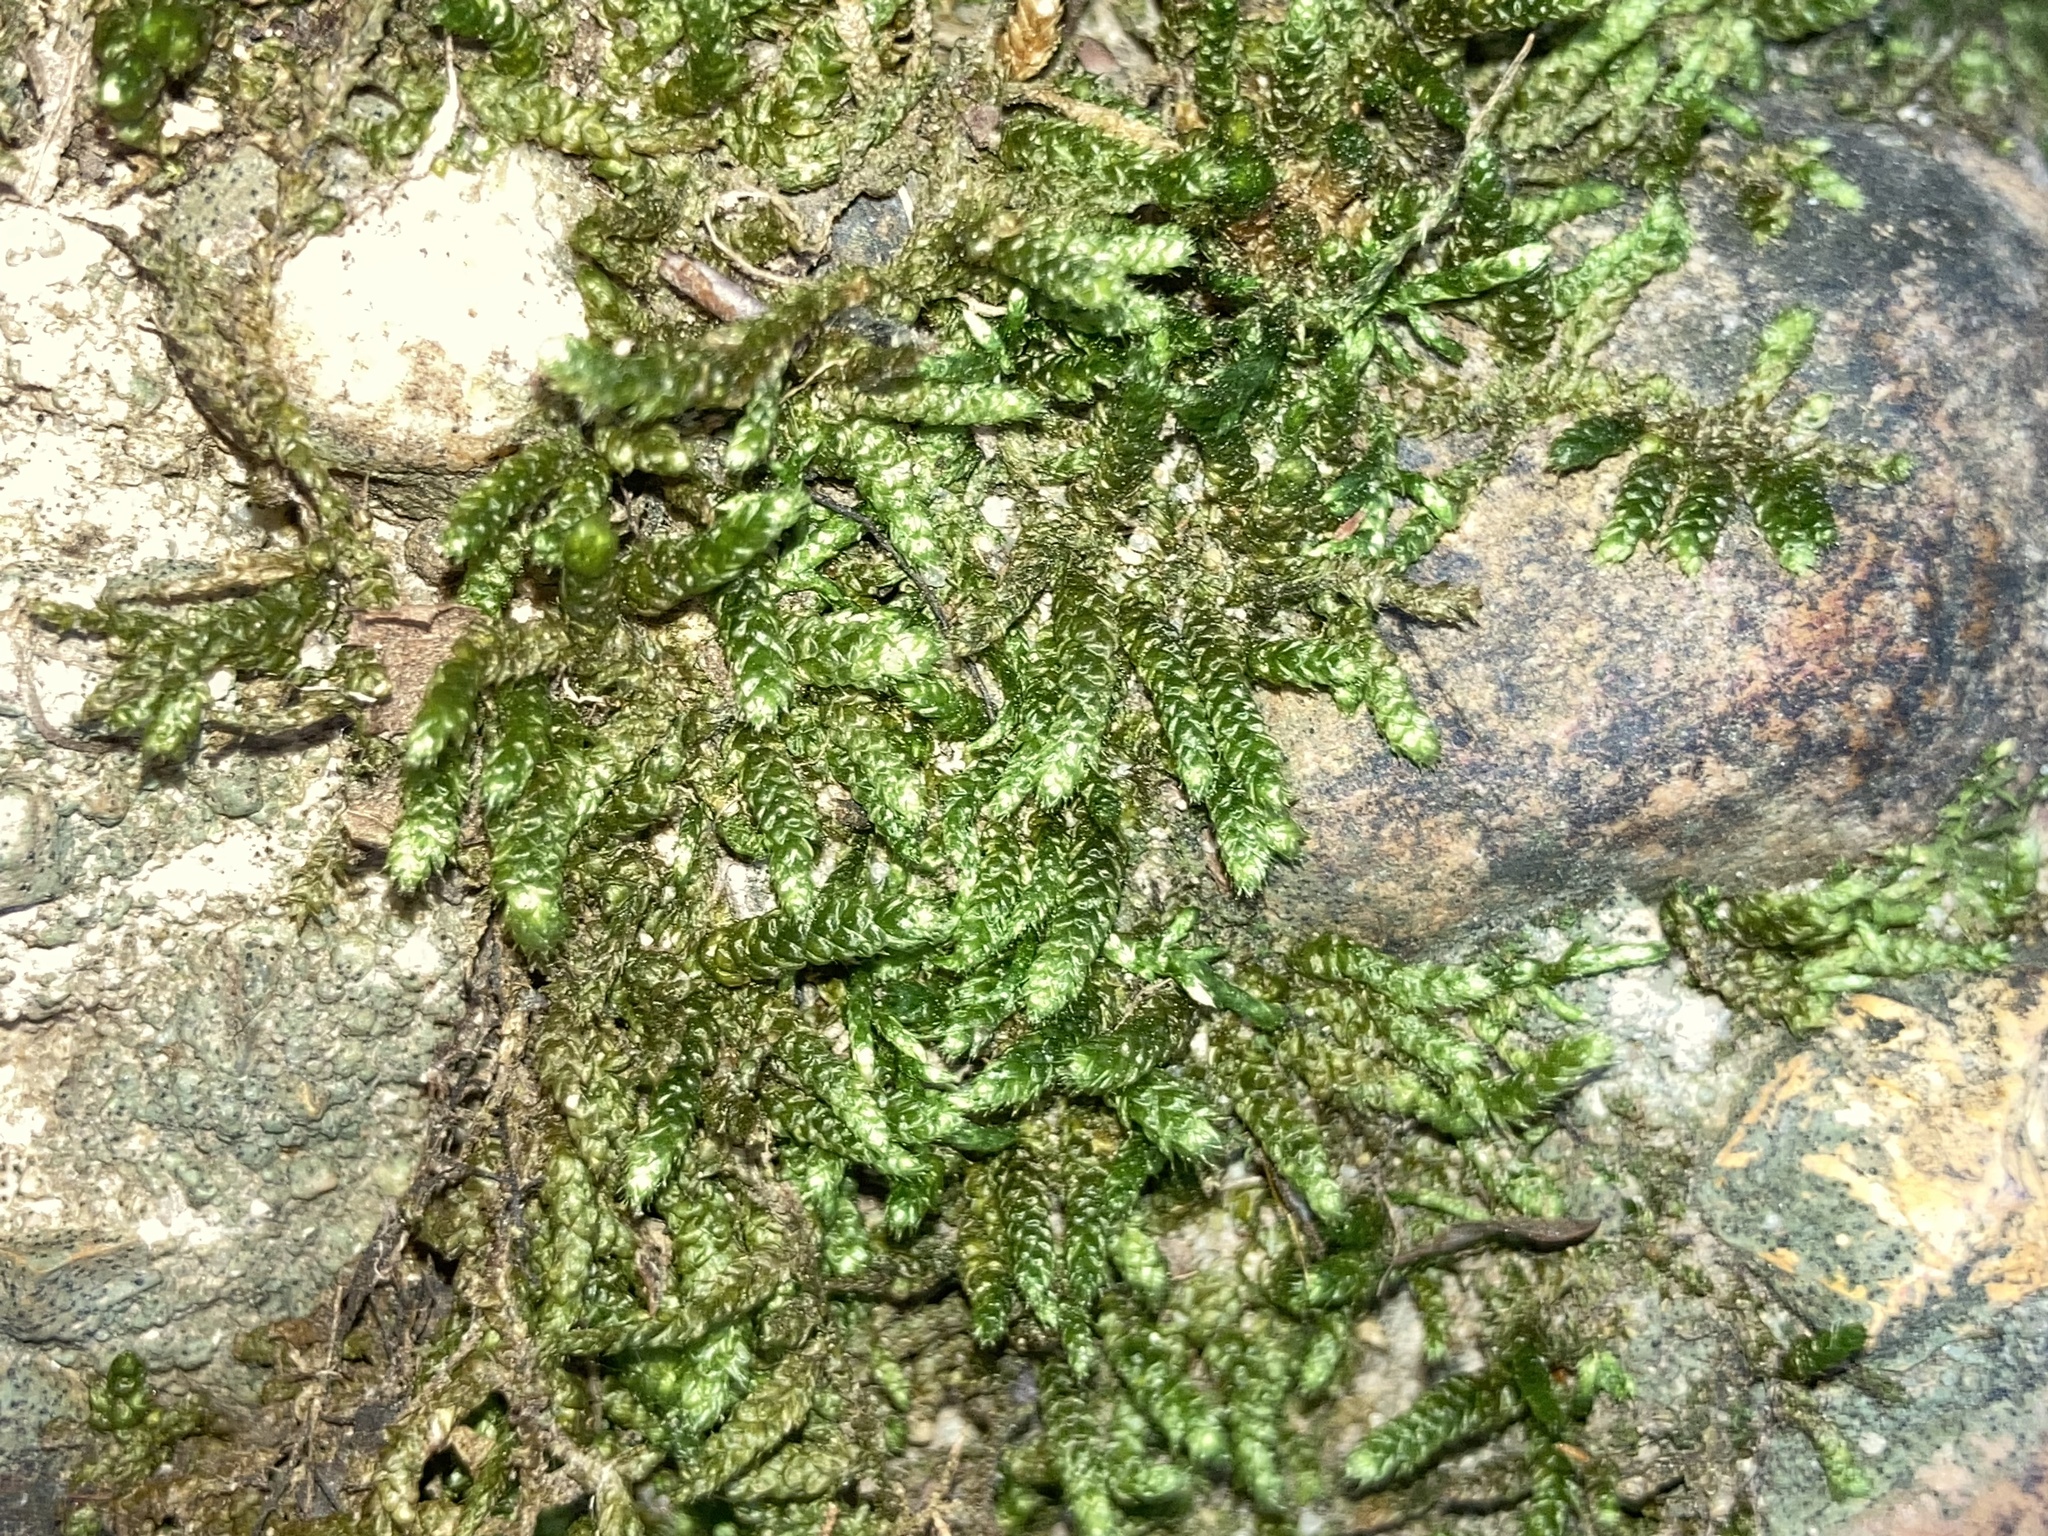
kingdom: Plantae
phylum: Bryophyta
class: Bryopsida
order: Hypnales
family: Brachytheciaceae
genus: Bryoandersonia
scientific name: Bryoandersonia illecebra
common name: Spoon-leaved moss
